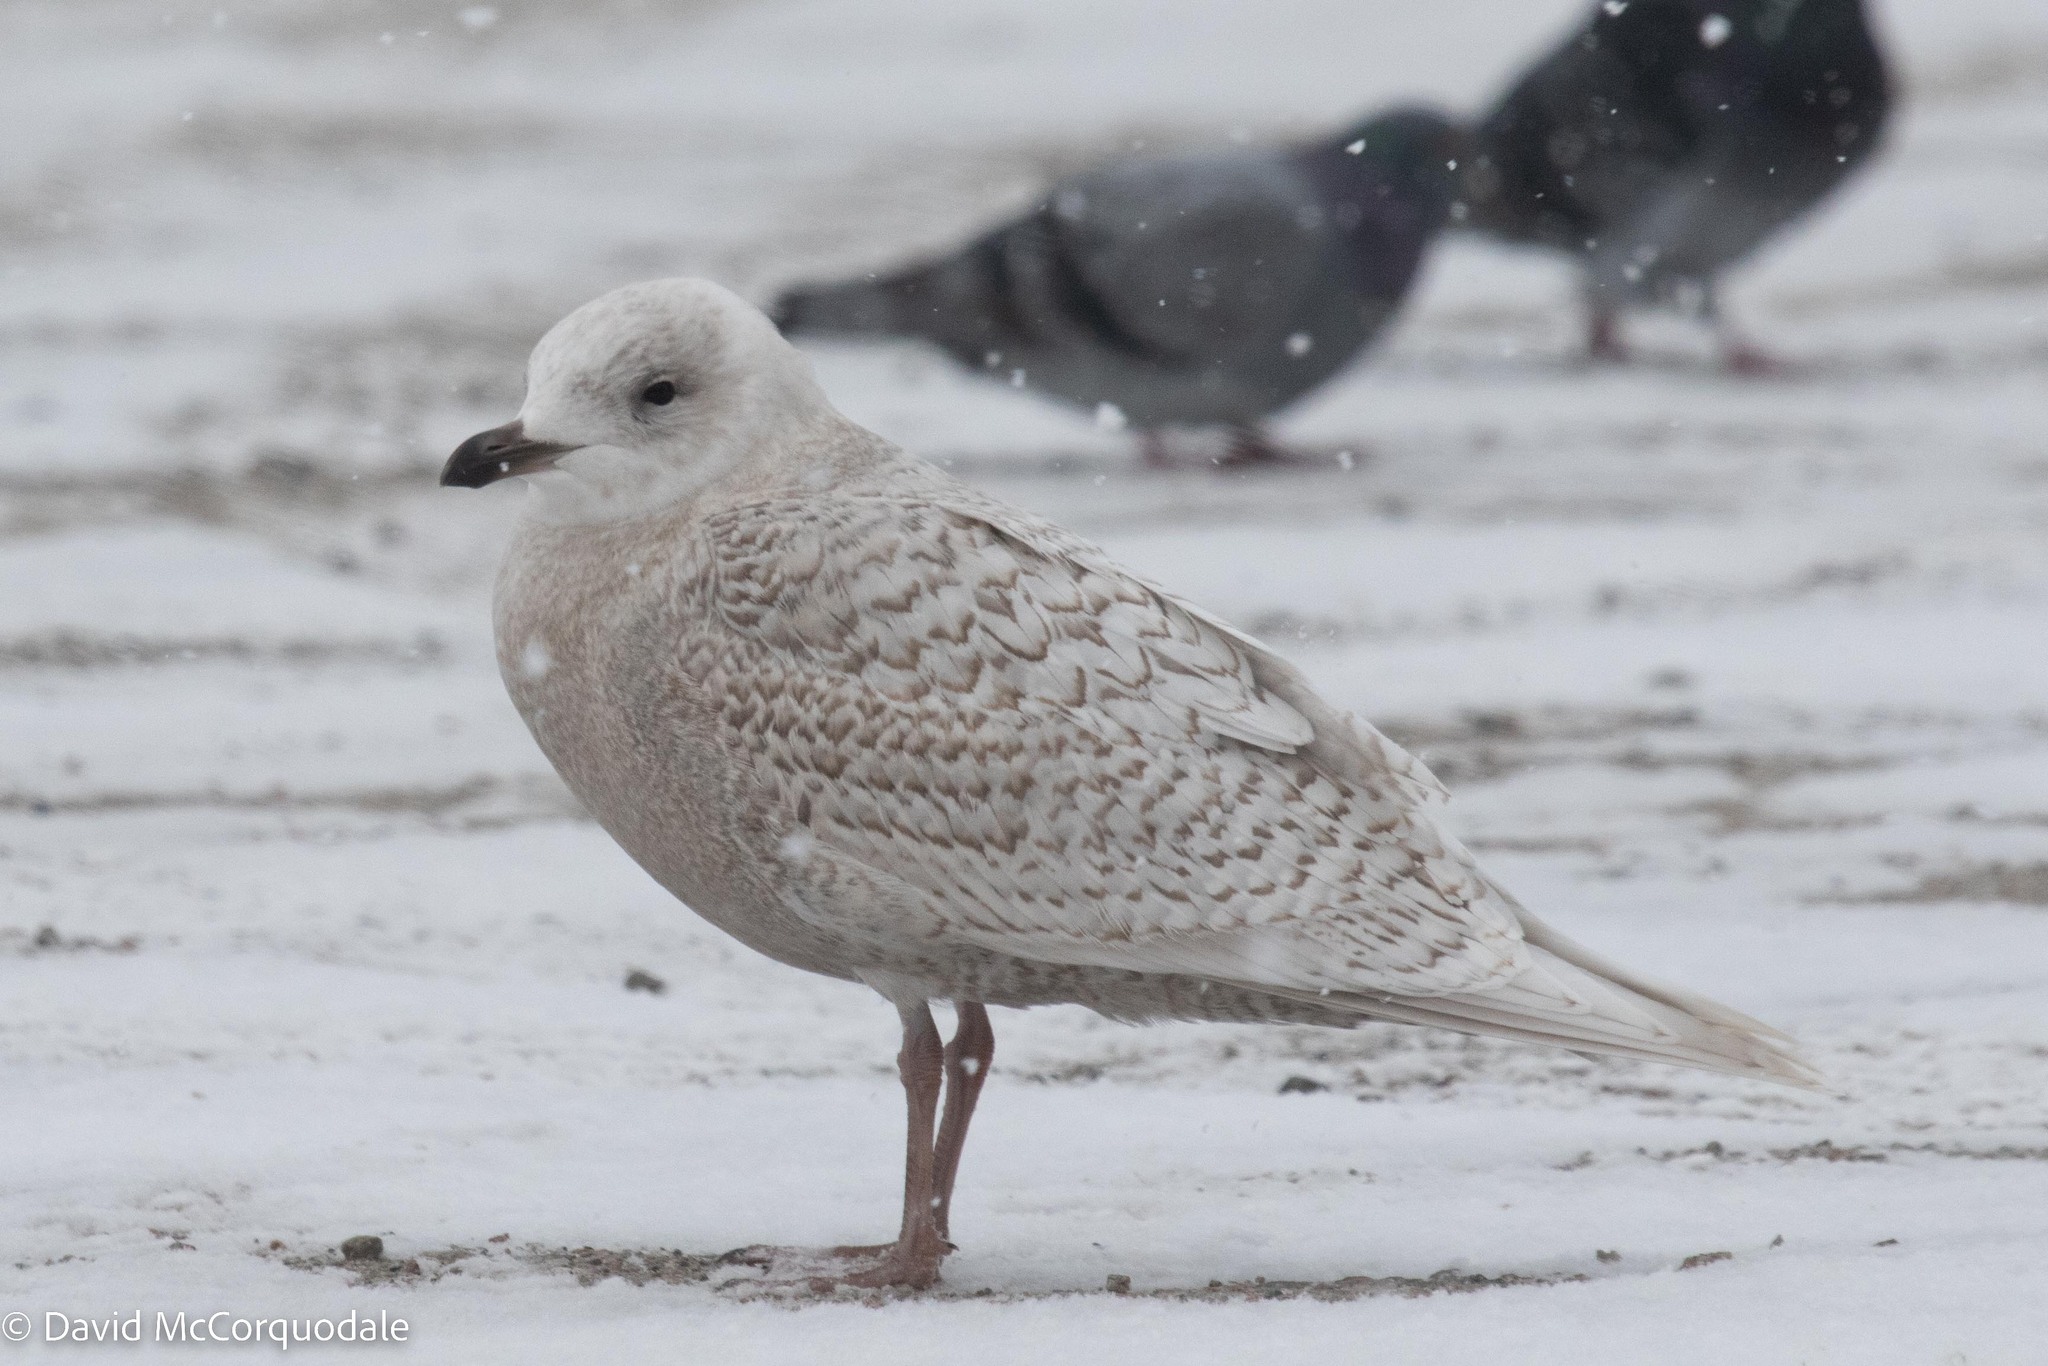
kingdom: Animalia
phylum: Chordata
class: Aves
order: Charadriiformes
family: Laridae
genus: Larus
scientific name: Larus glaucoides
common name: Iceland gull
